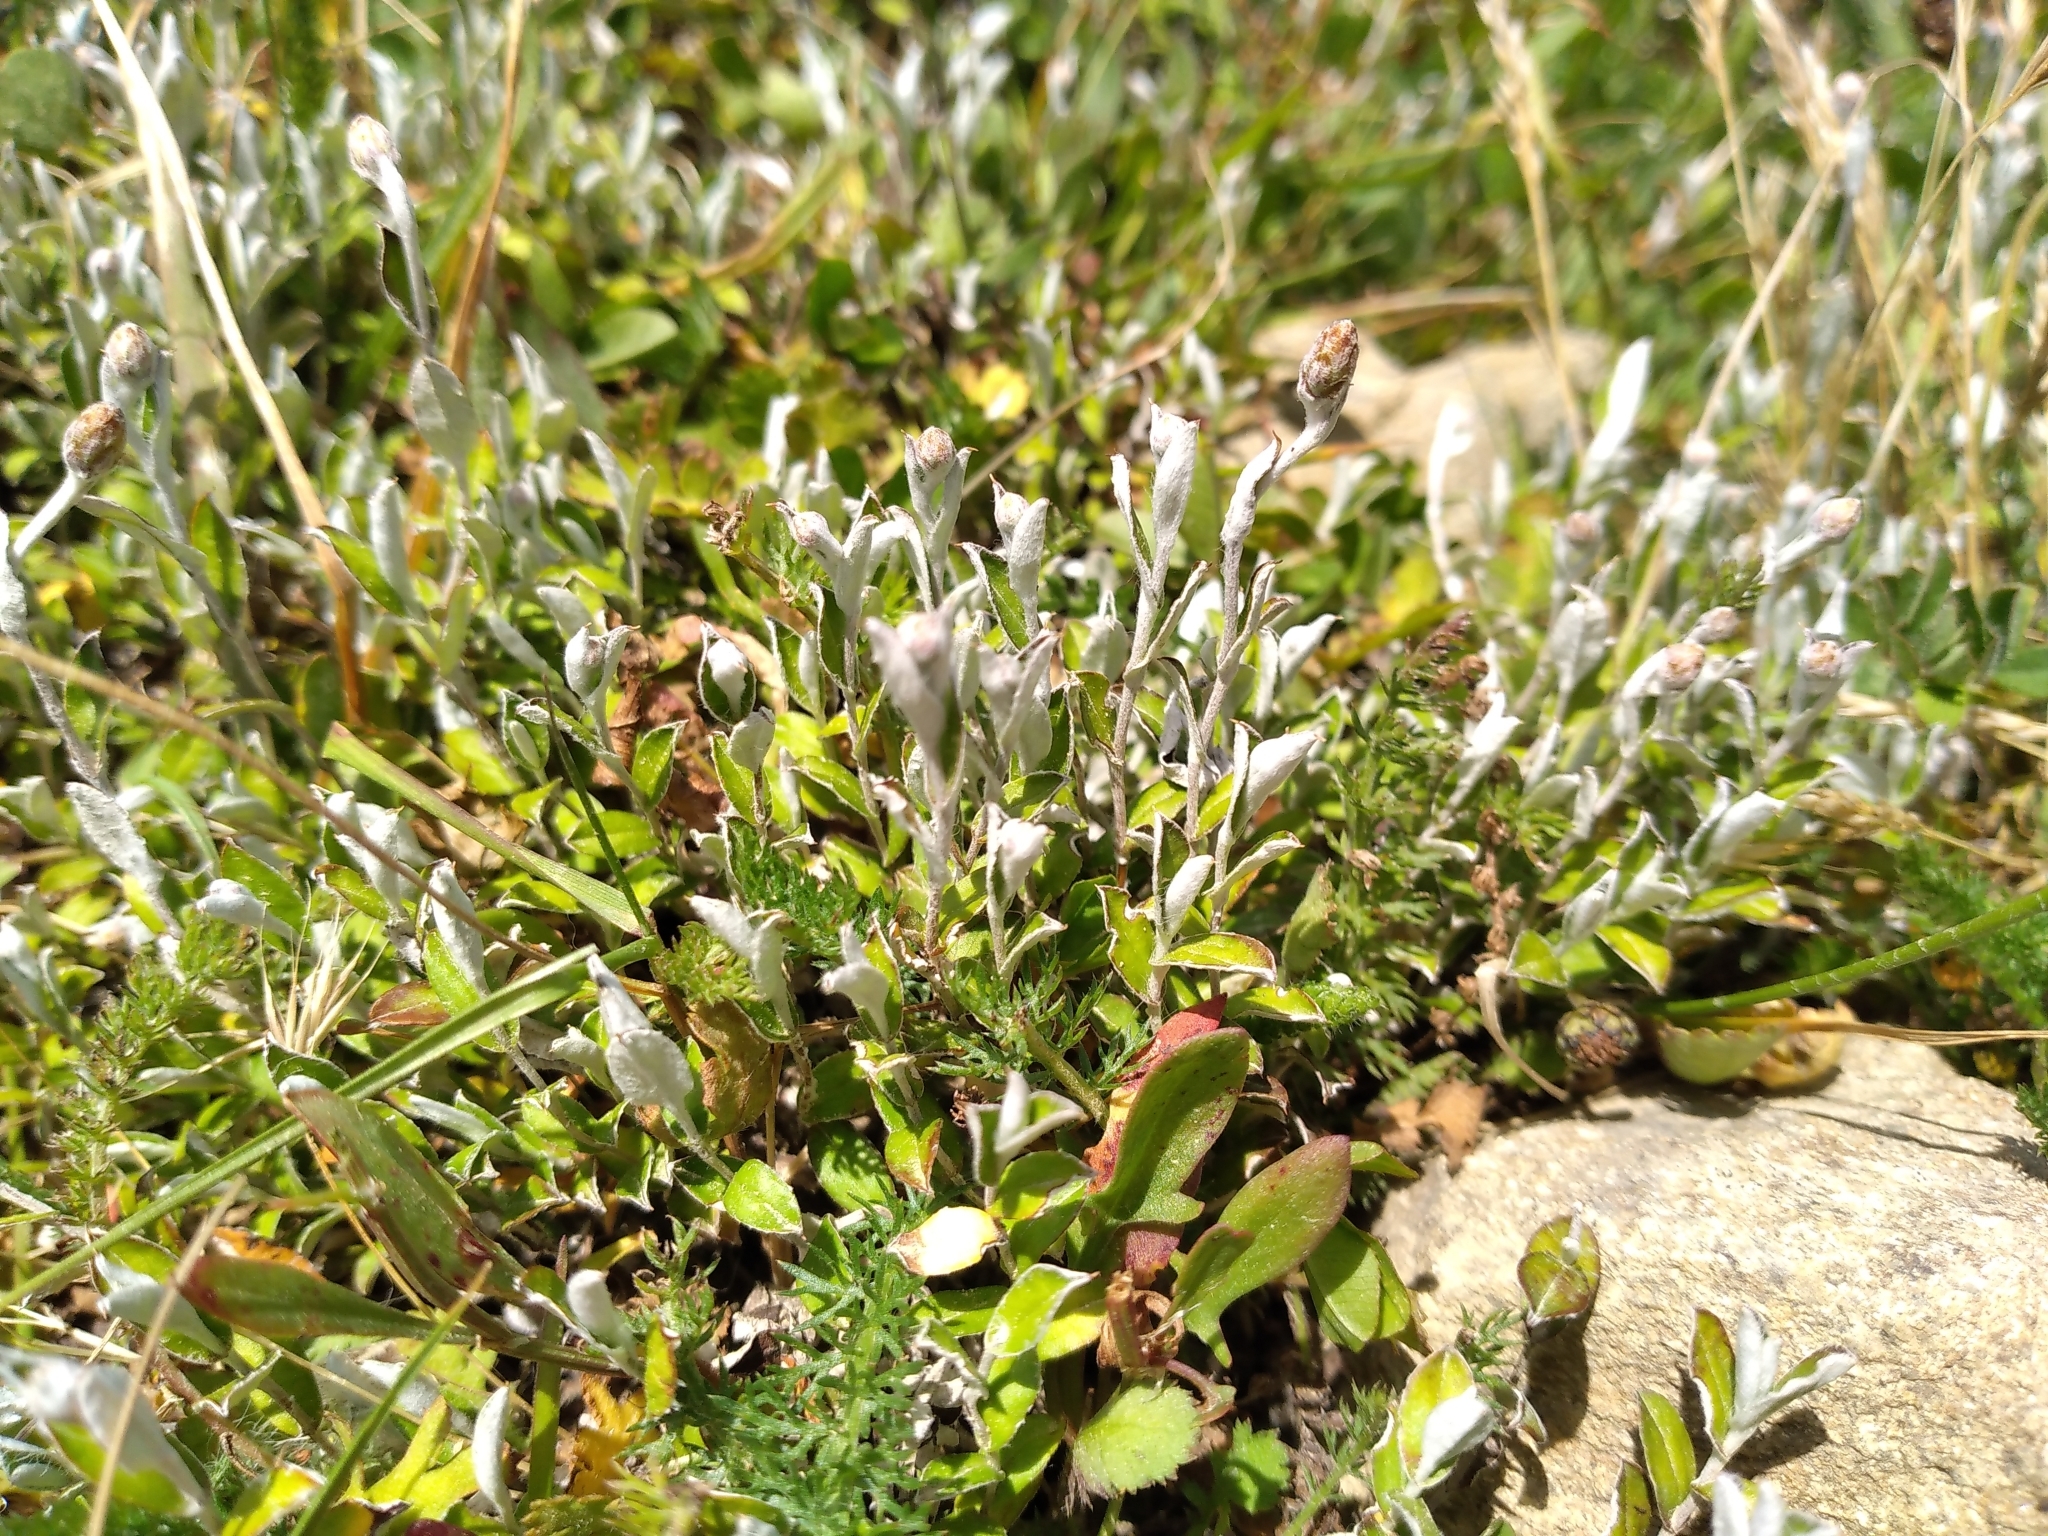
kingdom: Plantae
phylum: Tracheophyta
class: Magnoliopsida
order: Asterales
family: Asteraceae
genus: Helichrysum
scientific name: Helichrysum filicaule
